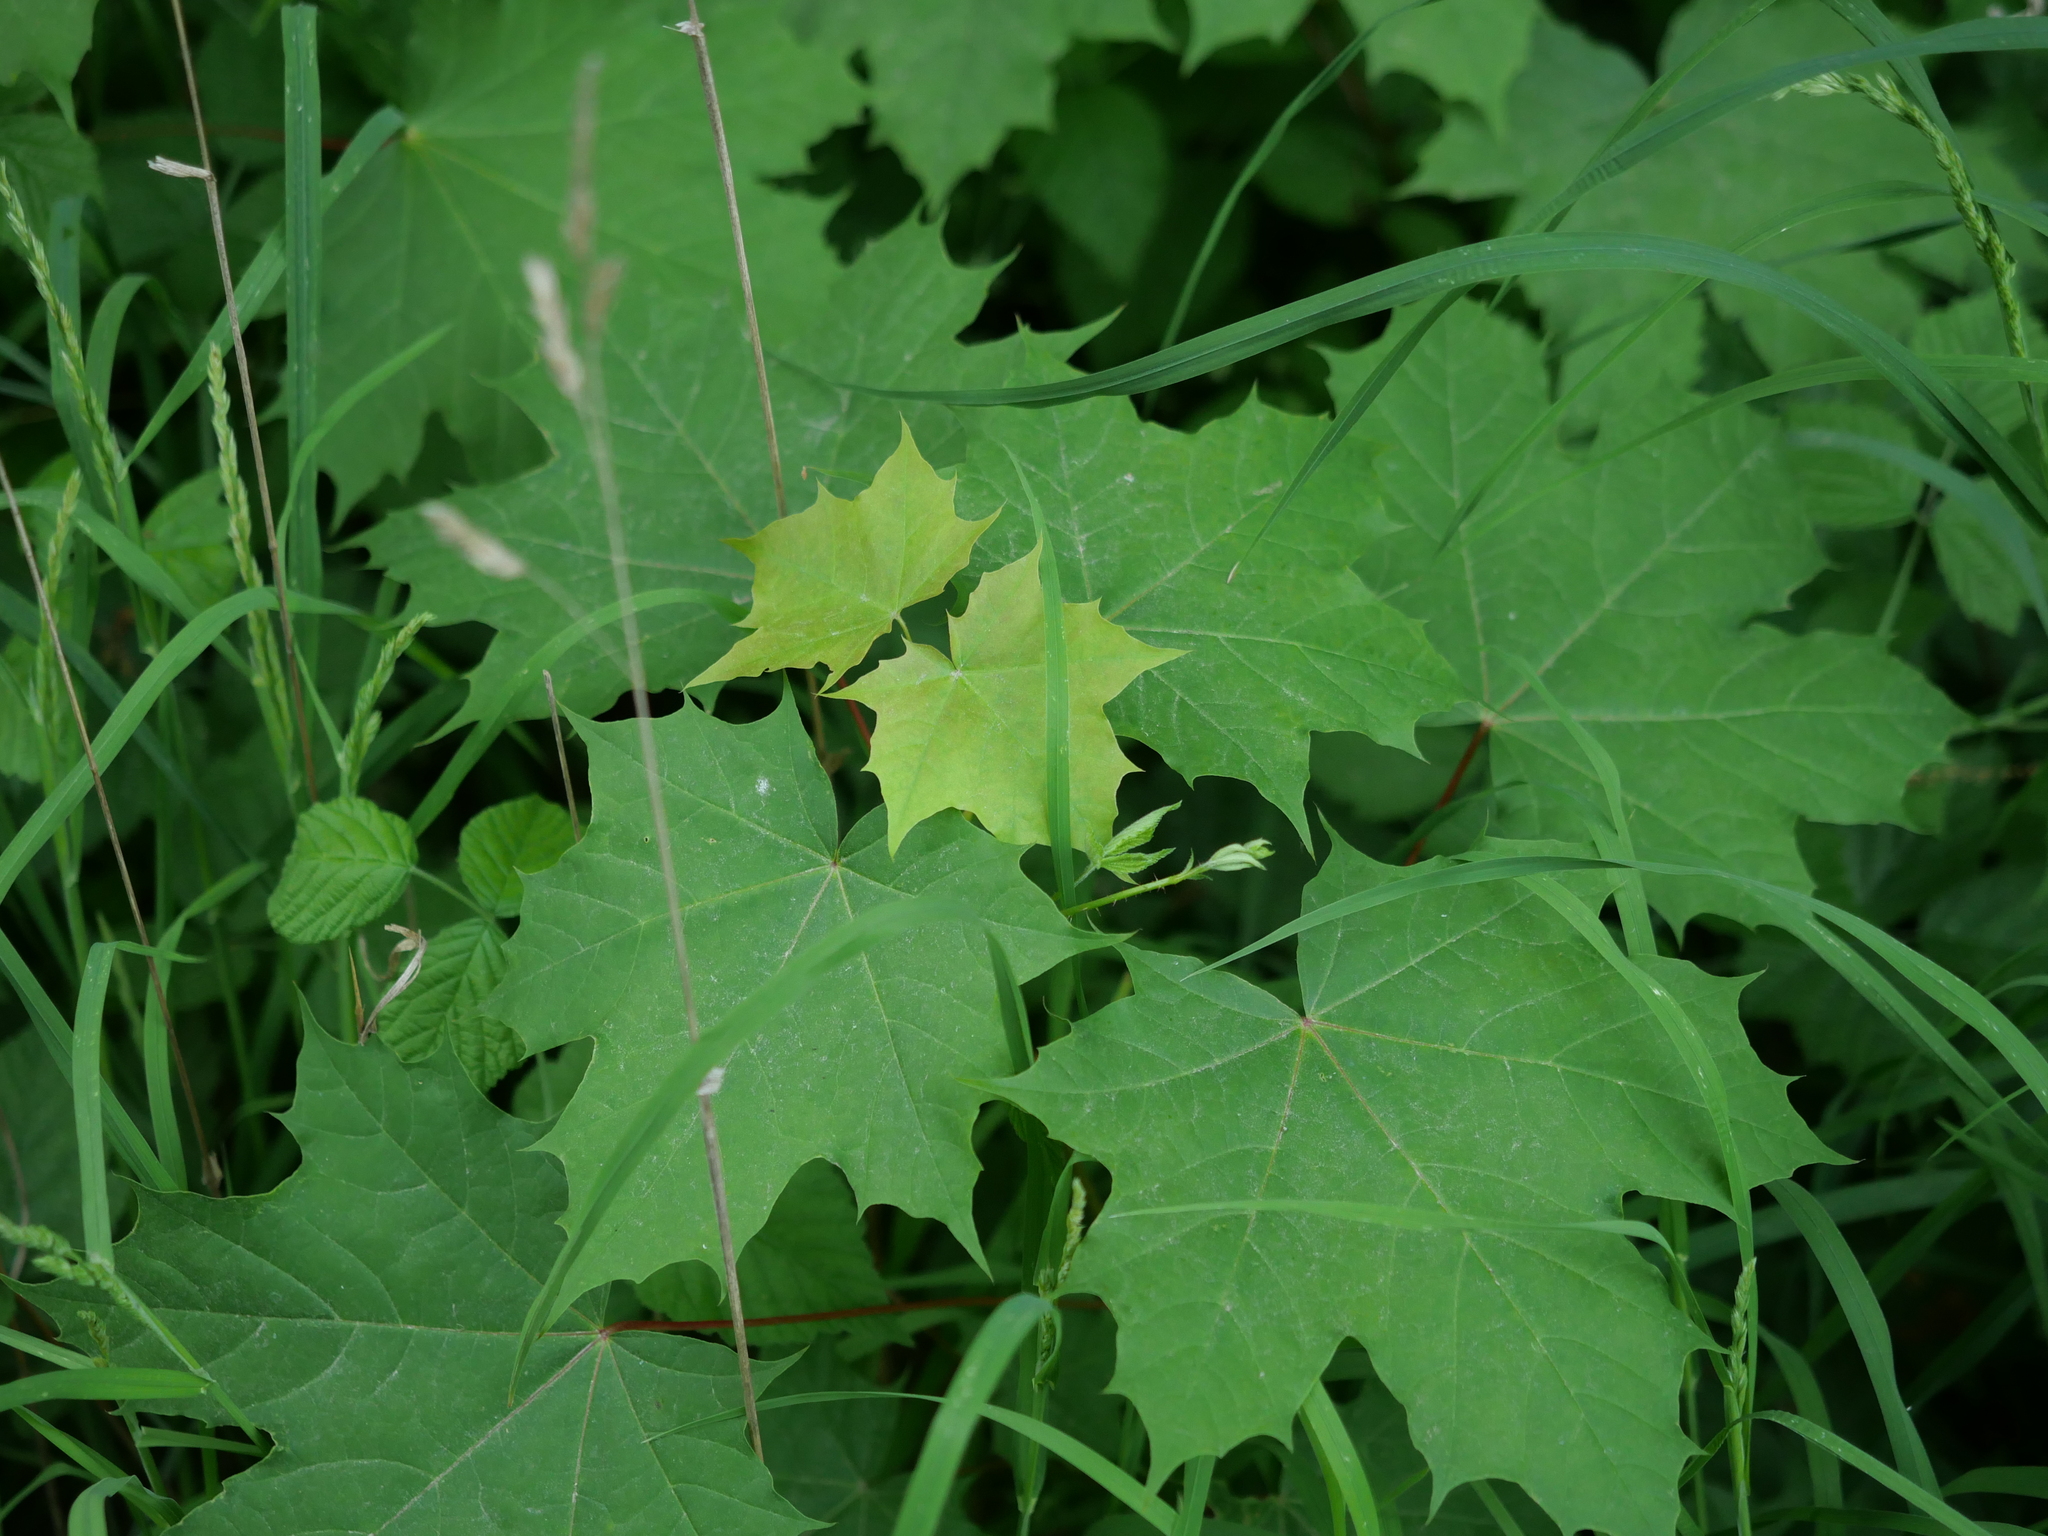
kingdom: Plantae
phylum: Tracheophyta
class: Magnoliopsida
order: Sapindales
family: Sapindaceae
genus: Acer
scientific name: Acer platanoides
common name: Norway maple
